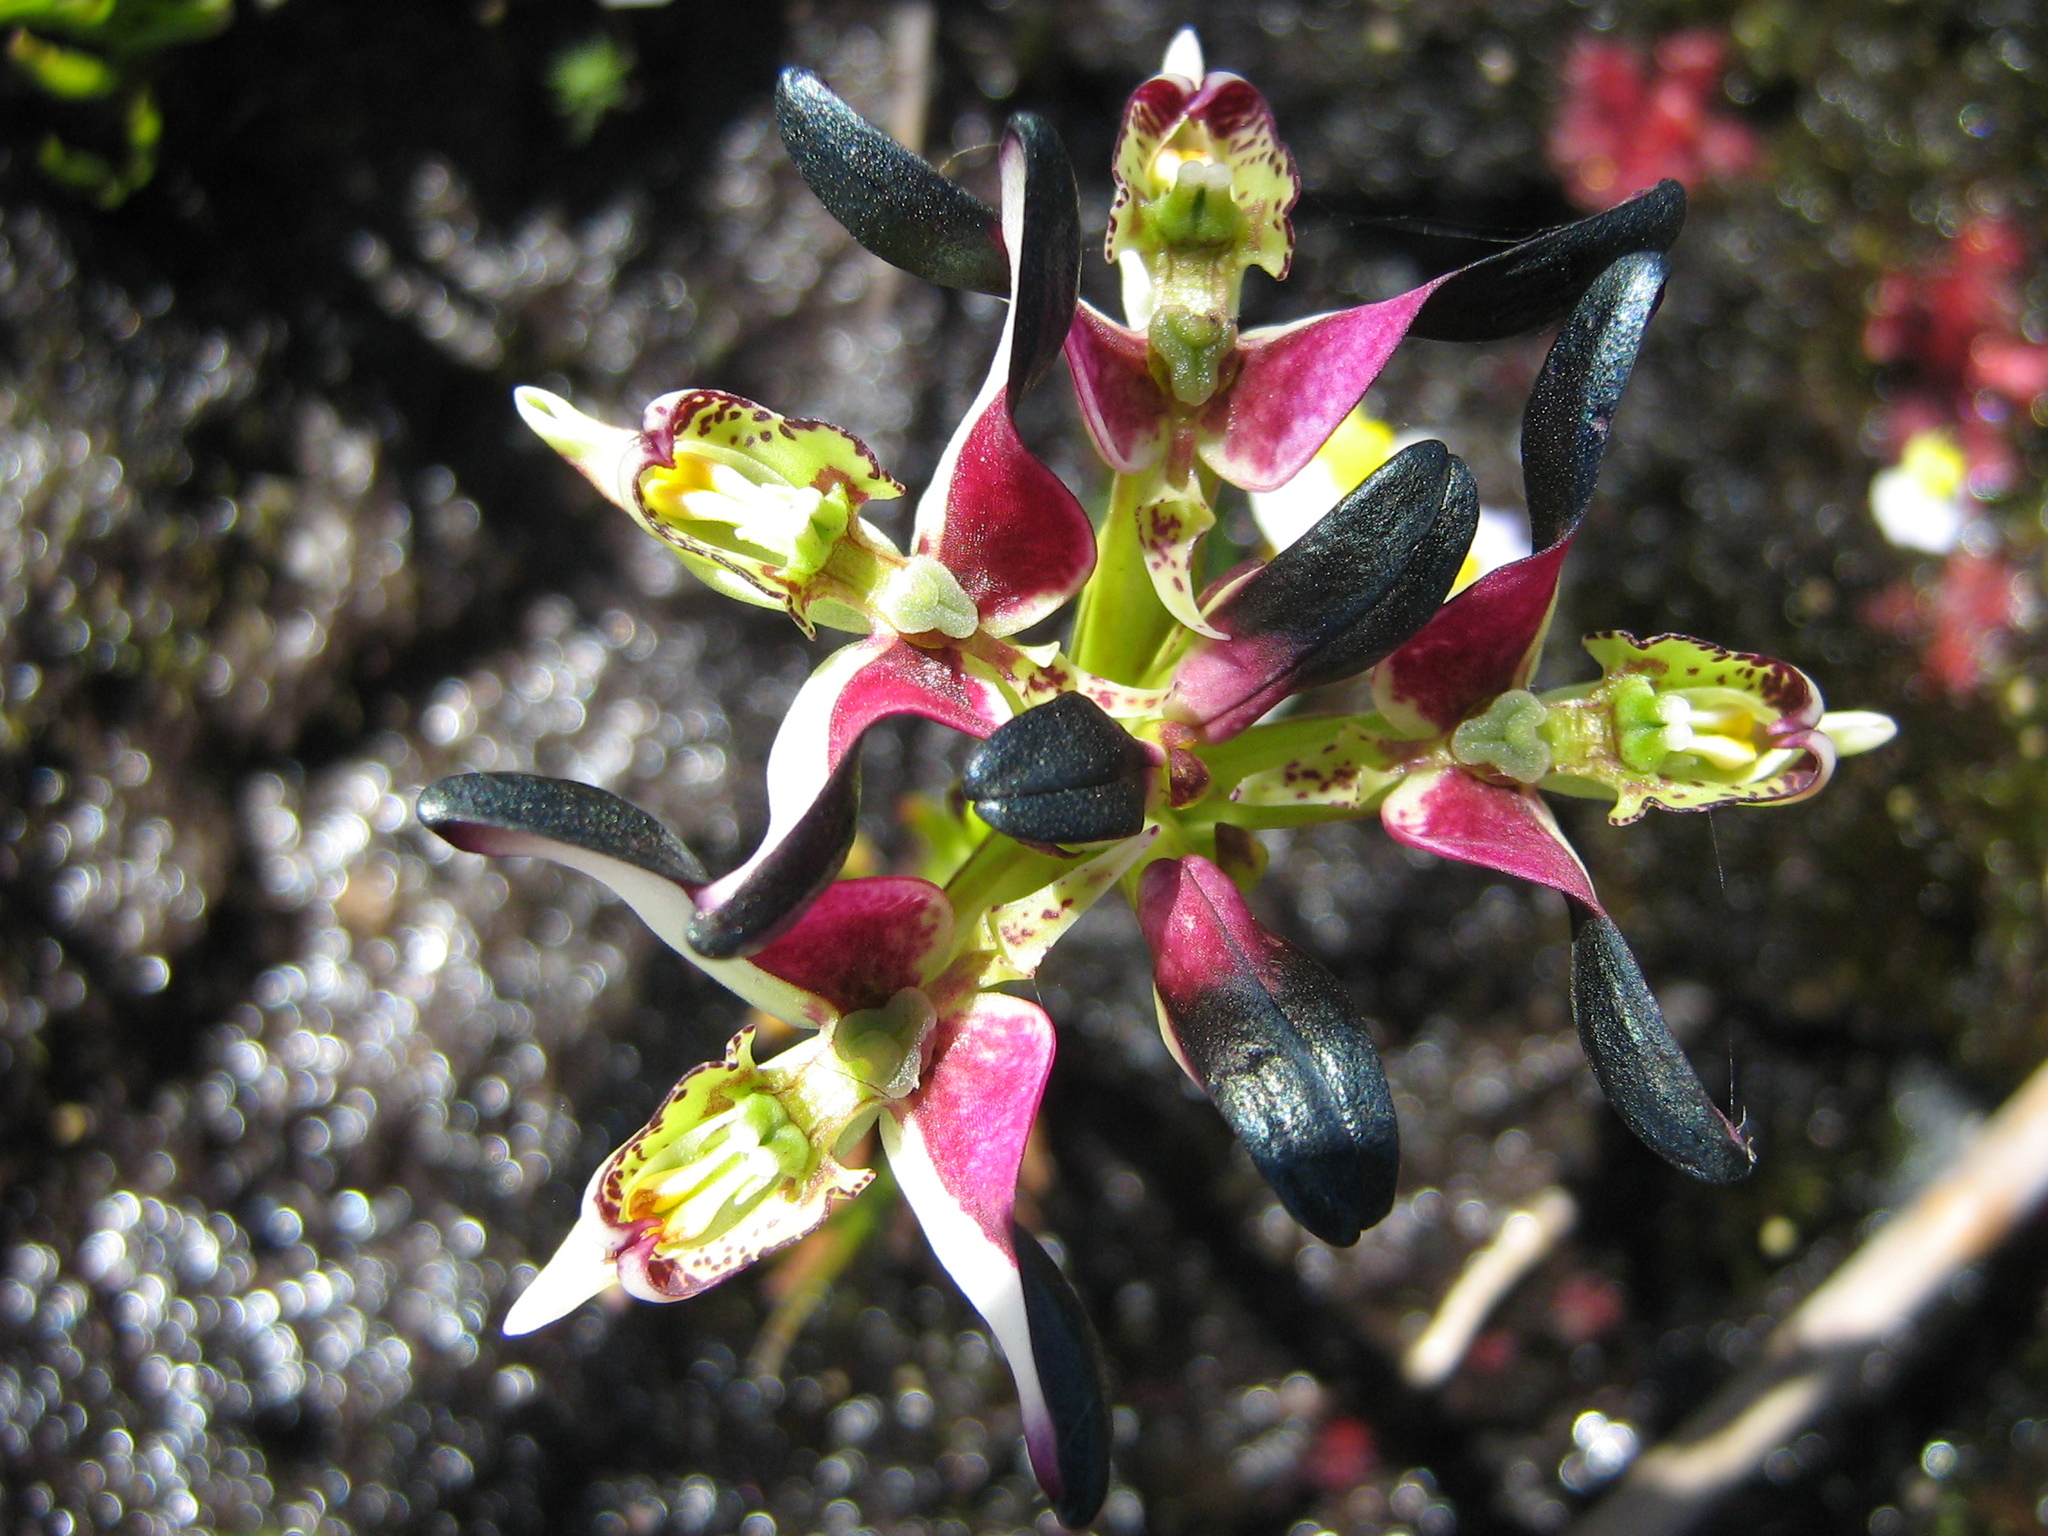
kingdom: Plantae
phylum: Tracheophyta
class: Liliopsida
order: Asparagales
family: Orchidaceae
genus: Disa
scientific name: Disa atricapilla
